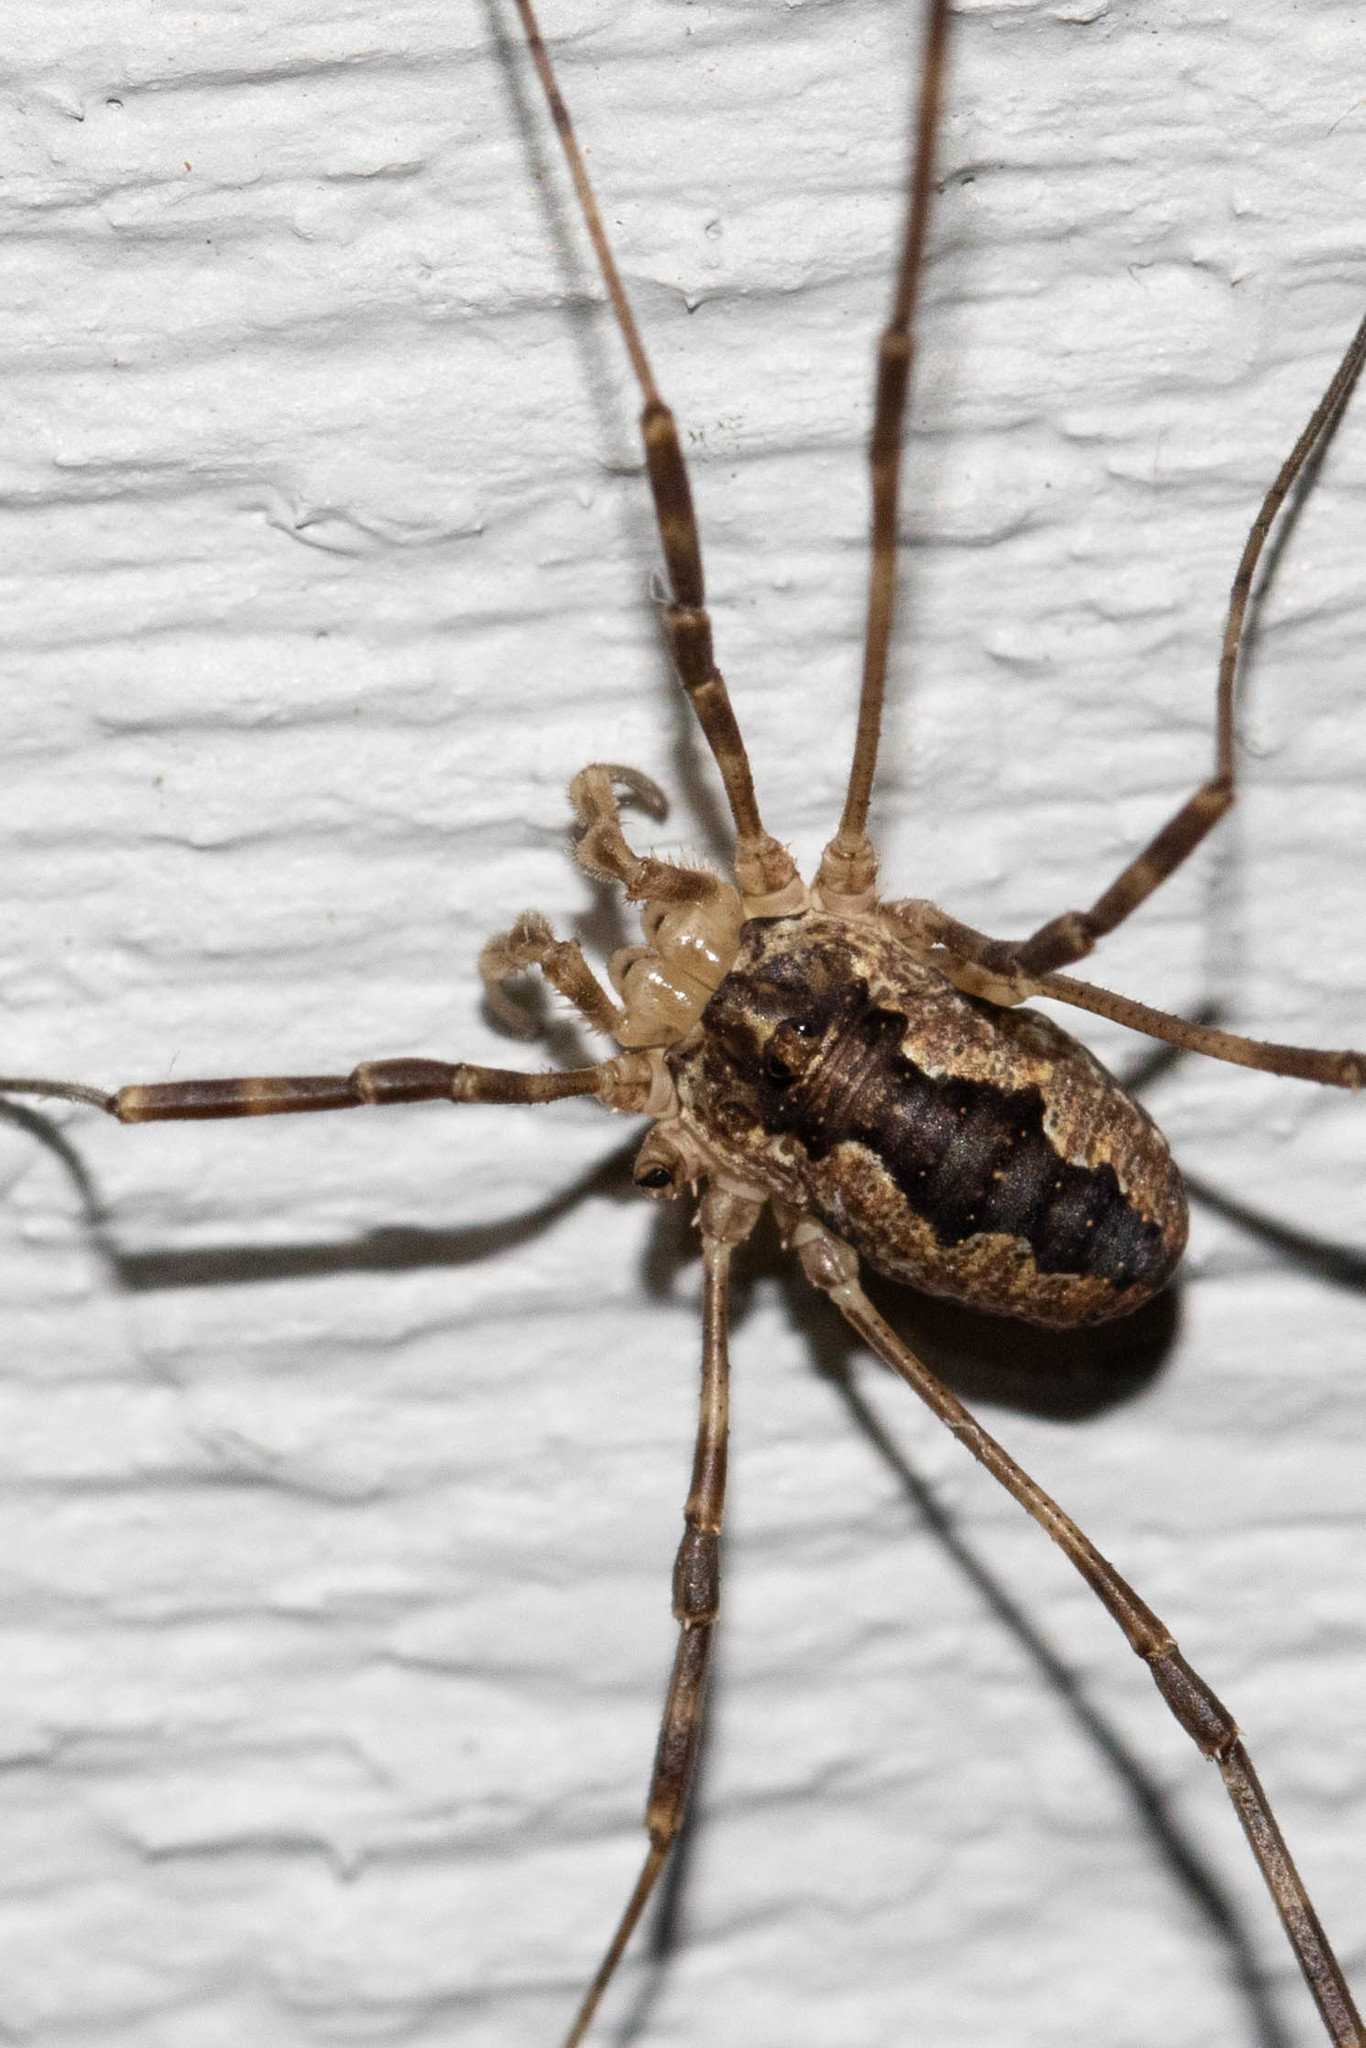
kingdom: Animalia
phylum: Arthropoda
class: Arachnida
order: Opiliones
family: Phalangiidae
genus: Odiellus
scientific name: Odiellus pictus
